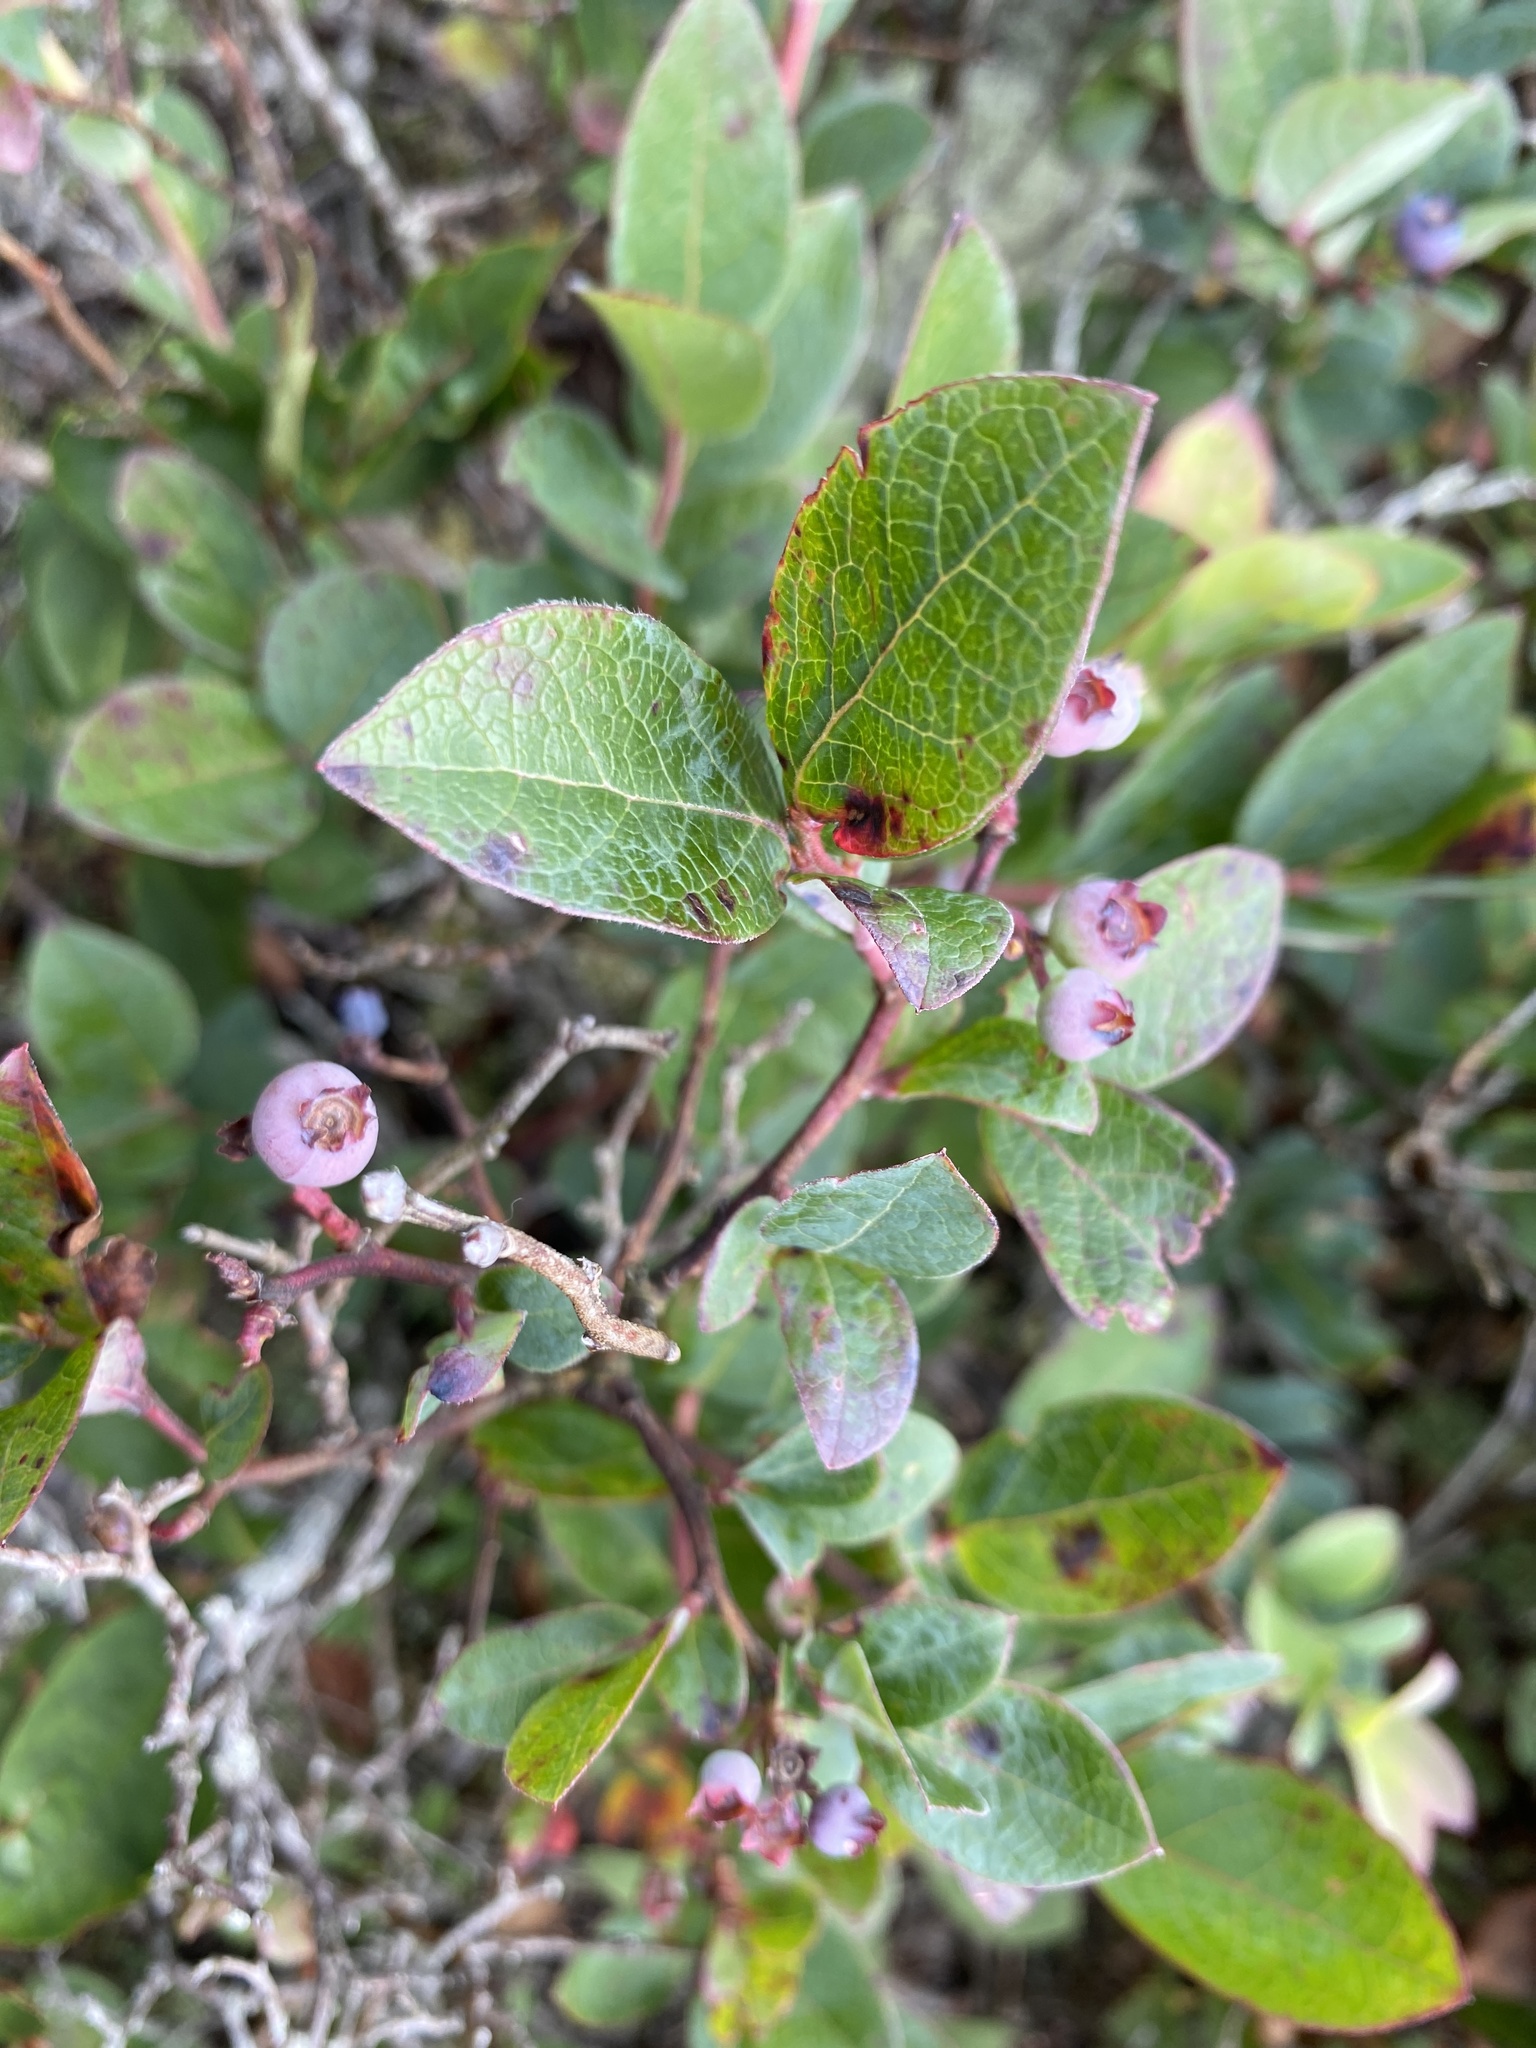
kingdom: Plantae
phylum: Tracheophyta
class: Magnoliopsida
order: Ericales
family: Ericaceae
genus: Vaccinium
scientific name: Vaccinium corymbosum
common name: Blueberry
